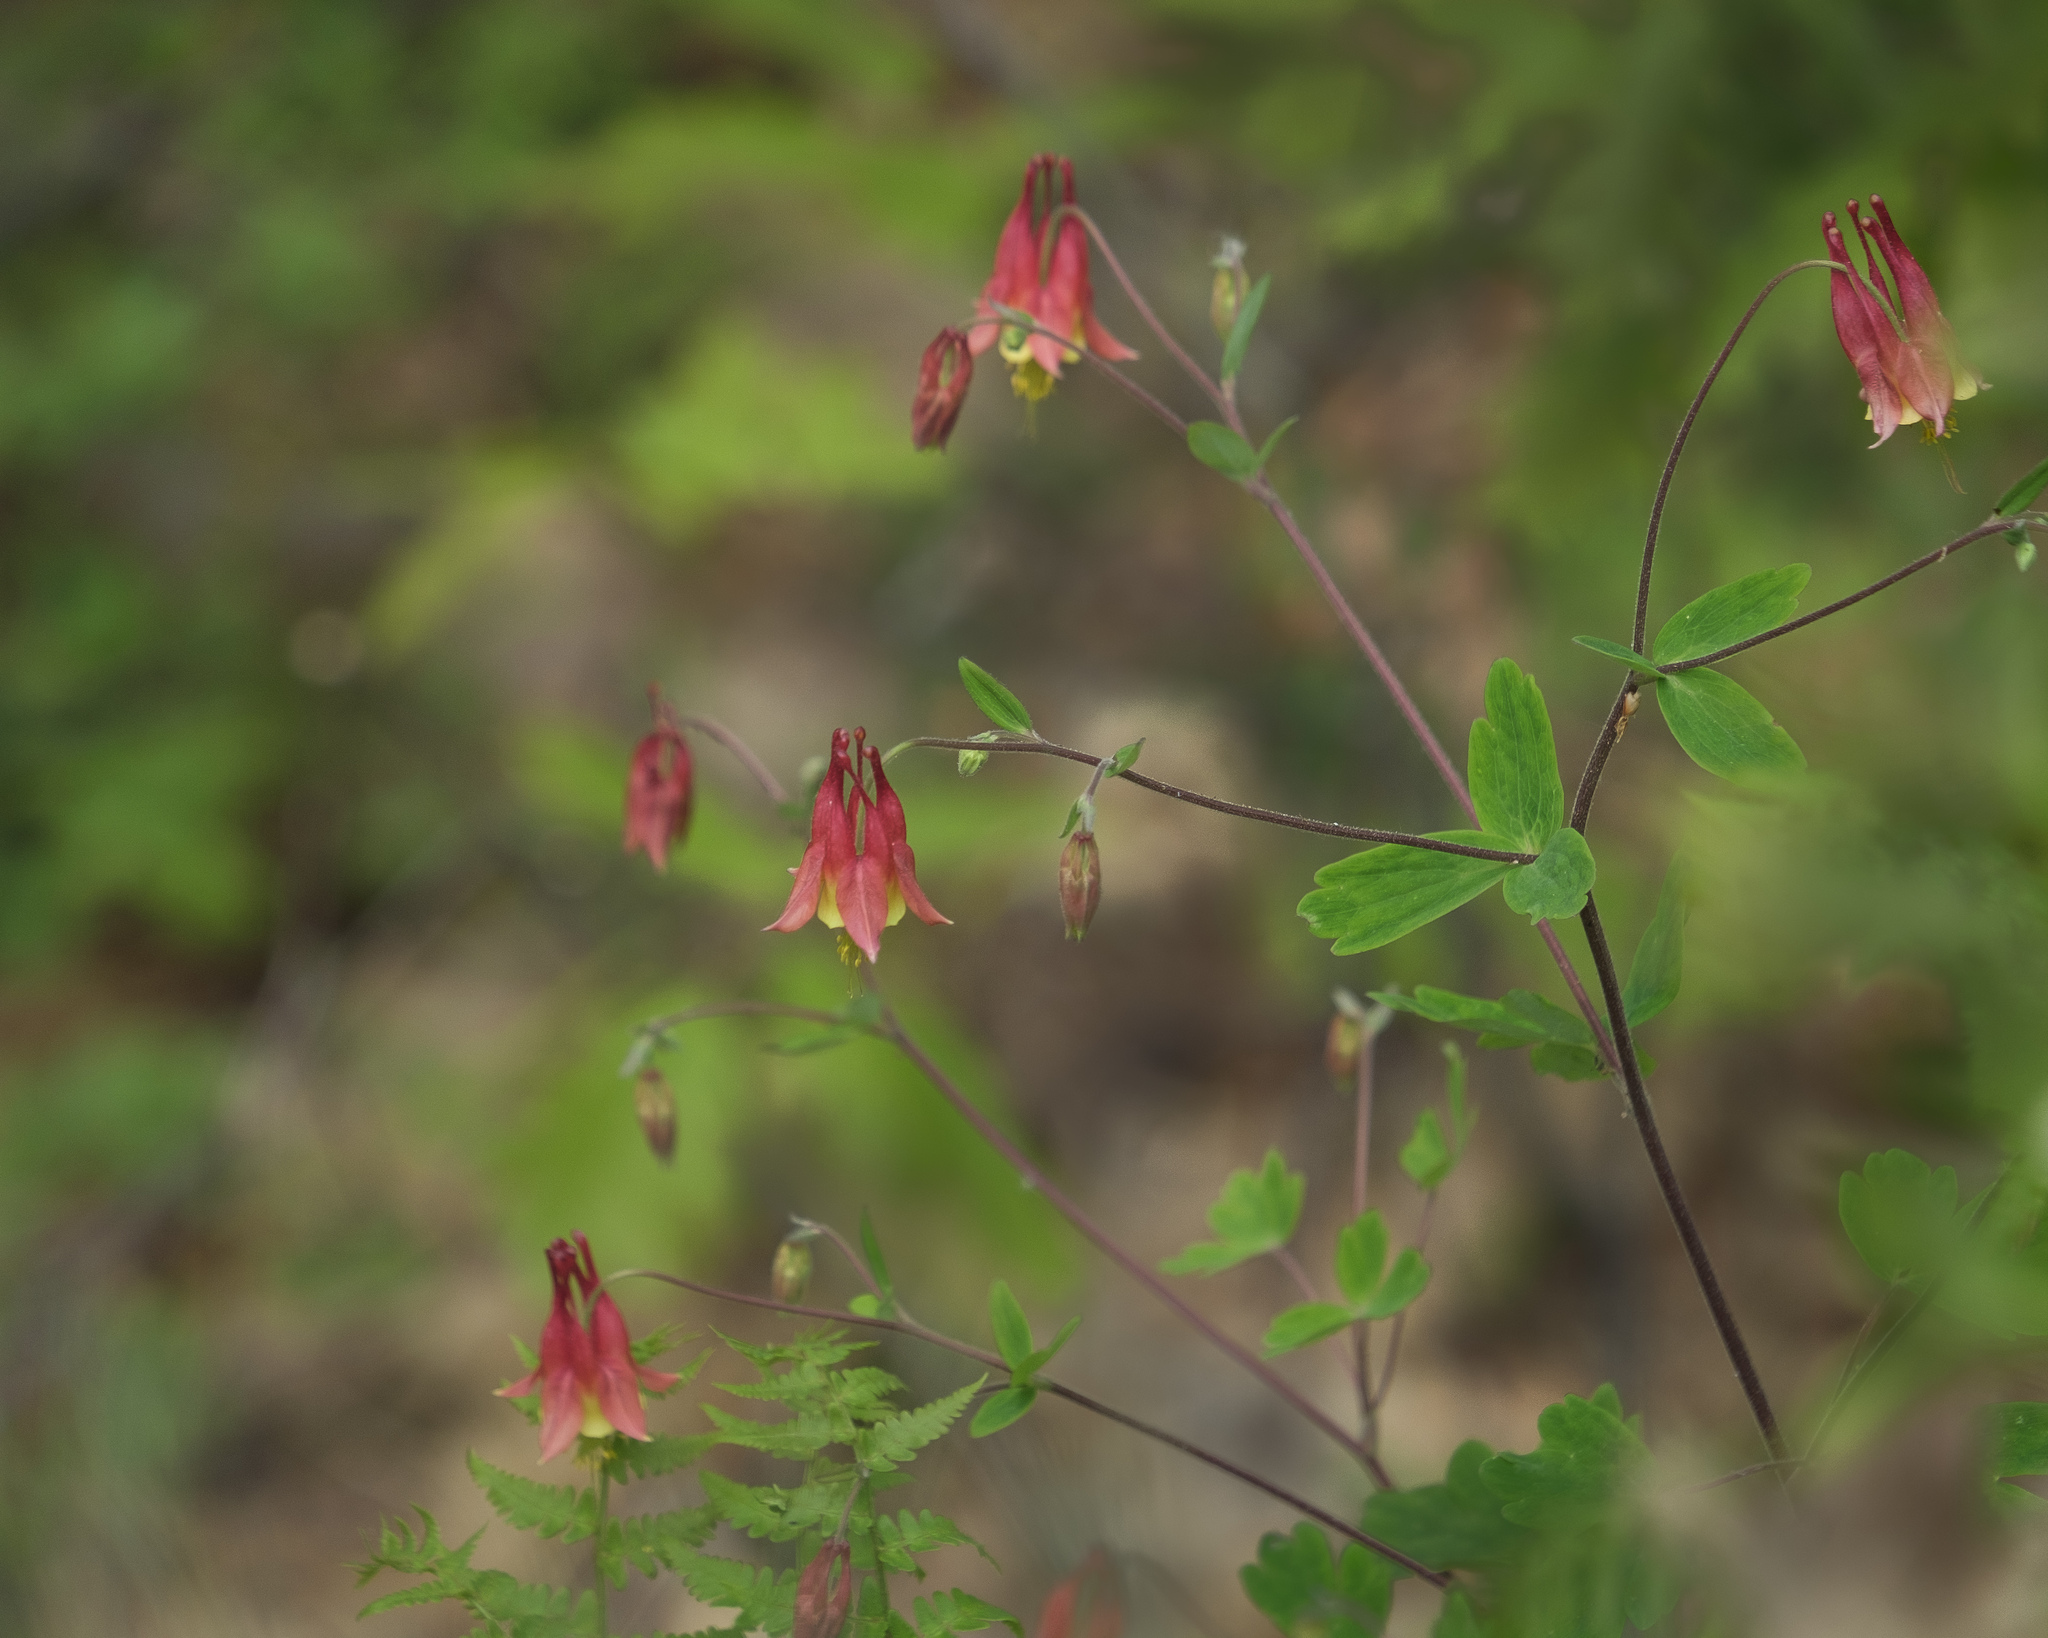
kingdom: Plantae
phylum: Tracheophyta
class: Magnoliopsida
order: Ranunculales
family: Ranunculaceae
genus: Aquilegia
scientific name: Aquilegia canadensis
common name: American columbine
